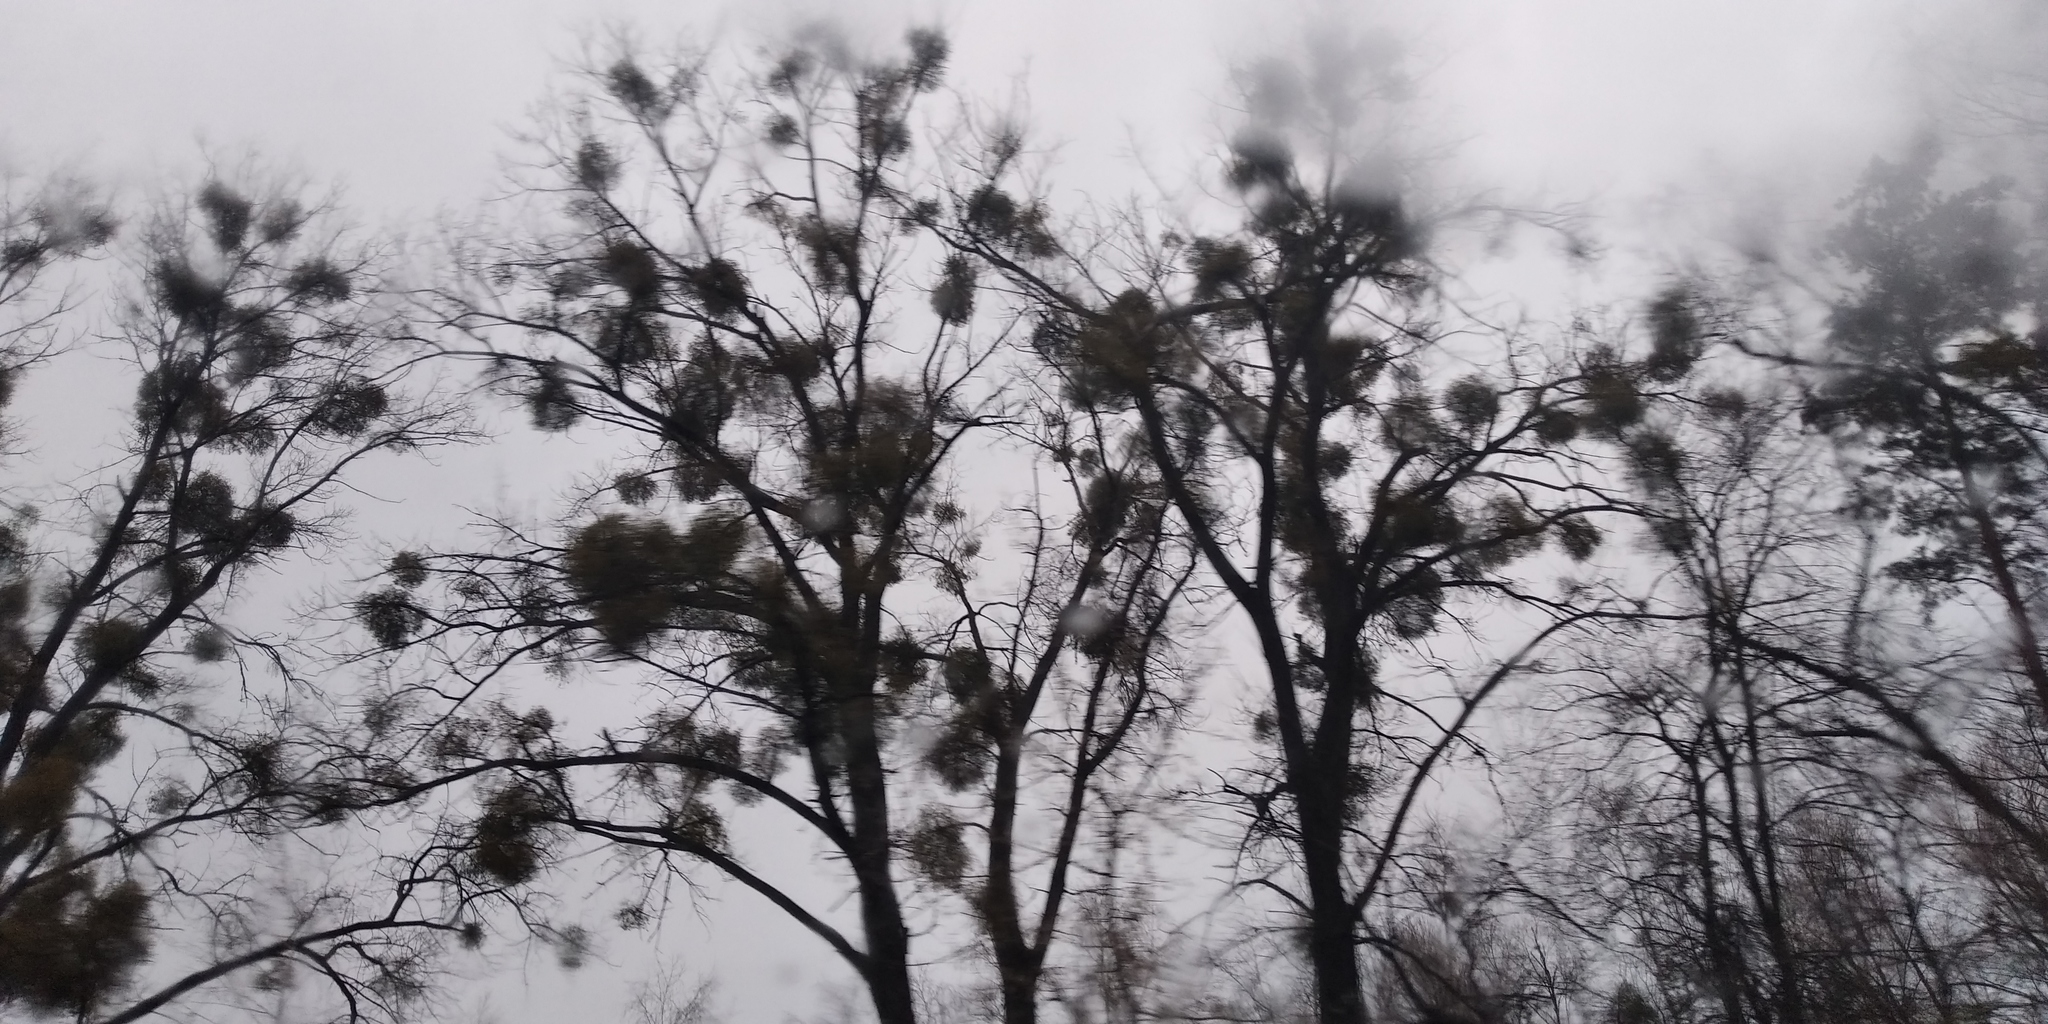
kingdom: Plantae
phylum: Tracheophyta
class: Magnoliopsida
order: Santalales
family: Viscaceae
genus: Viscum
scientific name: Viscum album
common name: Mistletoe
